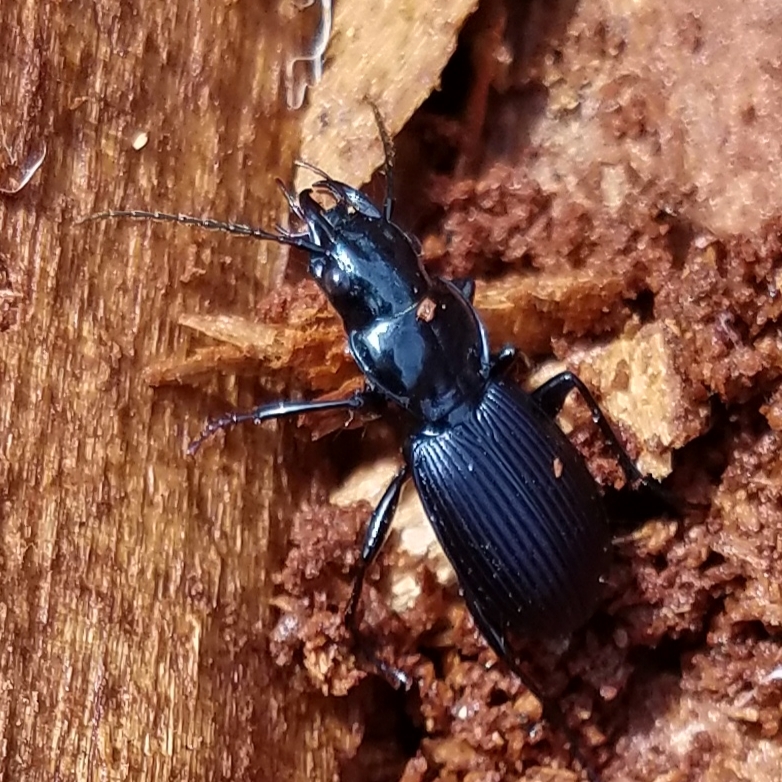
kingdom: Animalia
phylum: Arthropoda
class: Insecta
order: Coleoptera
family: Carabidae
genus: Pterostichus
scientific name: Pterostichus moestus
